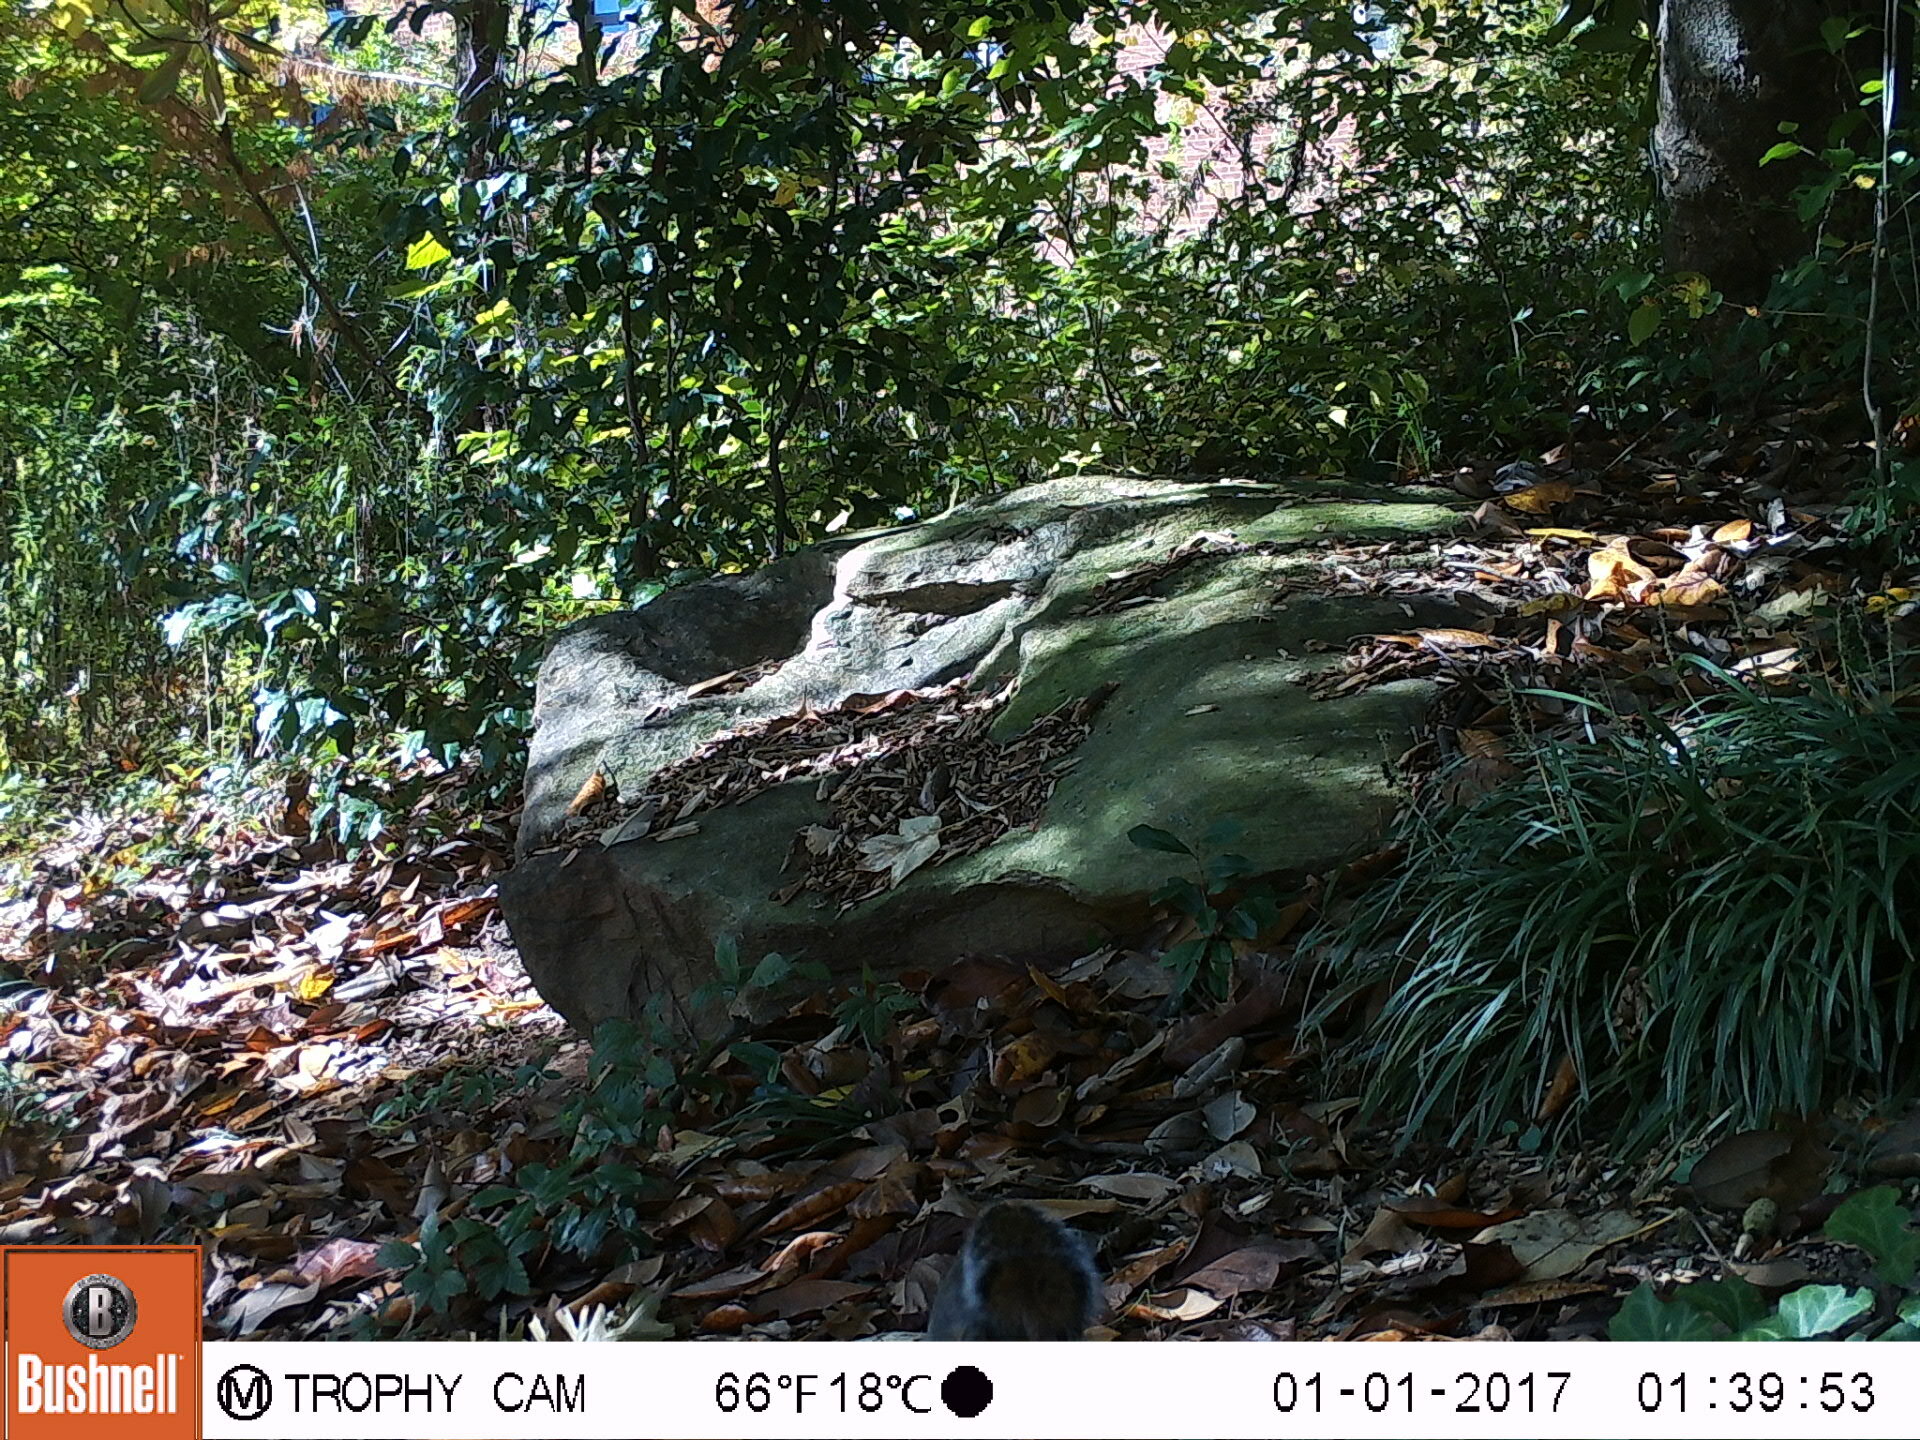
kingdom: Animalia
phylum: Chordata
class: Mammalia
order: Rodentia
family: Sciuridae
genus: Sciurus
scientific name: Sciurus carolinensis
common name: Eastern gray squirrel
